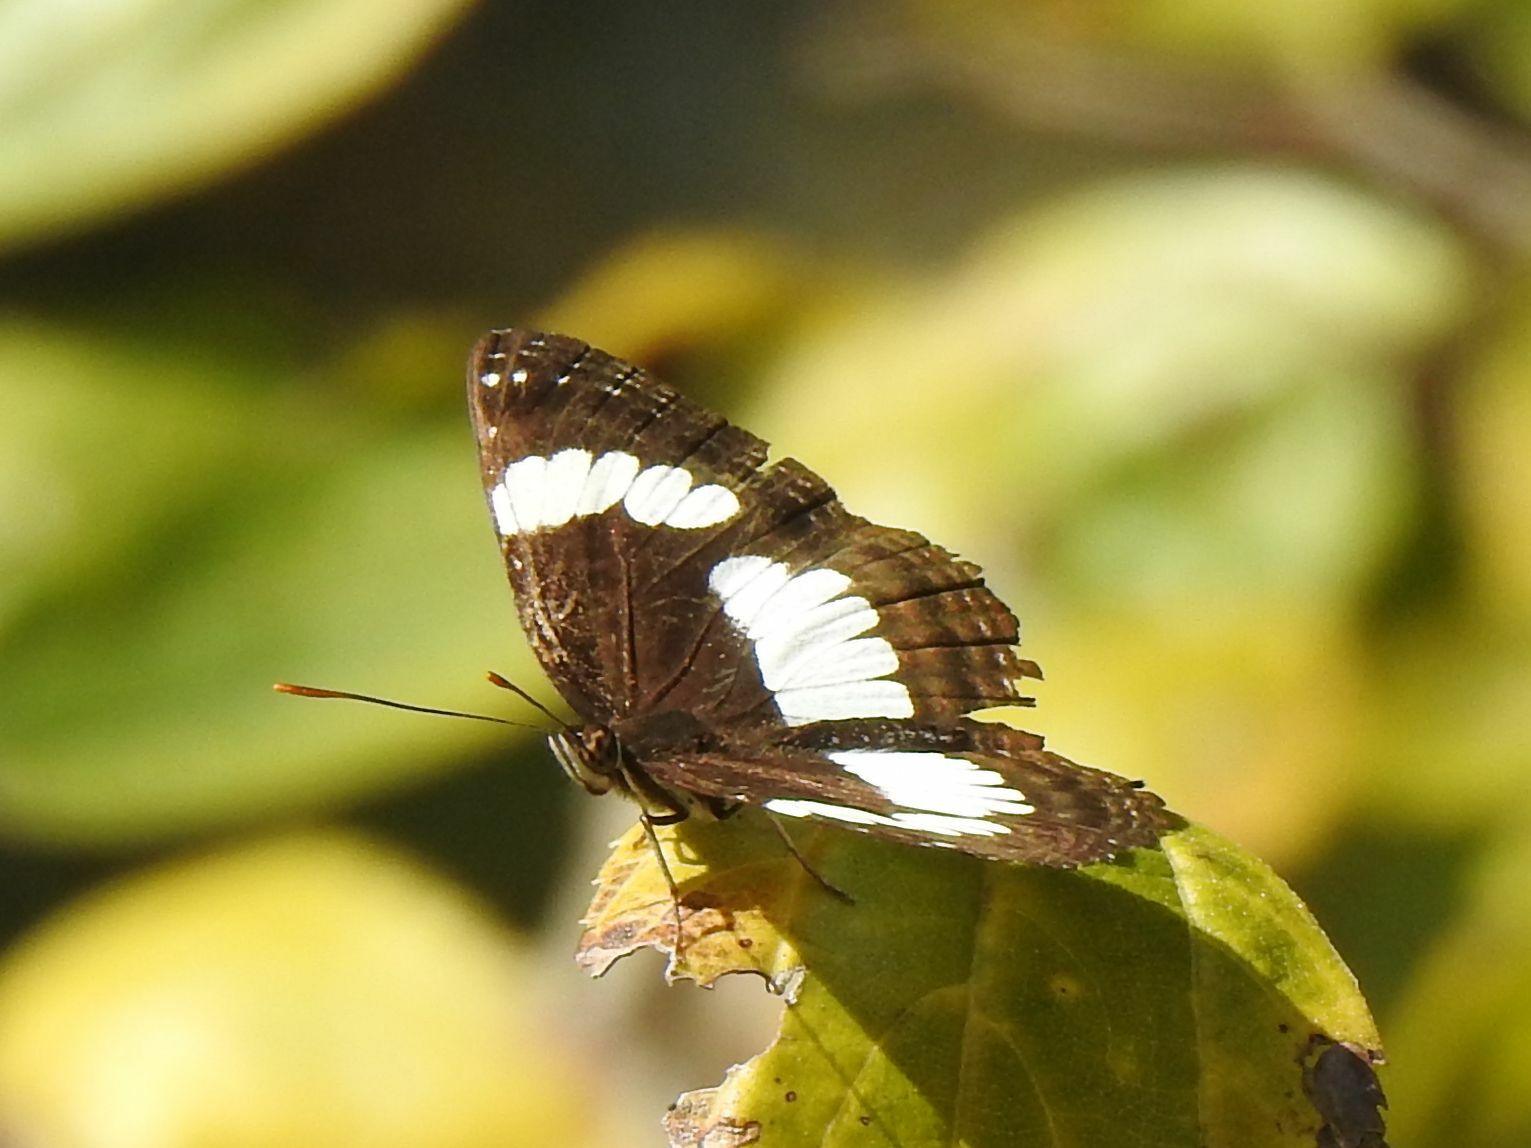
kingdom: Animalia
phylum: Arthropoda
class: Insecta
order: Lepidoptera
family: Nymphalidae
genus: Neptis
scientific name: Neptis laeta
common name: Common barred sailor
